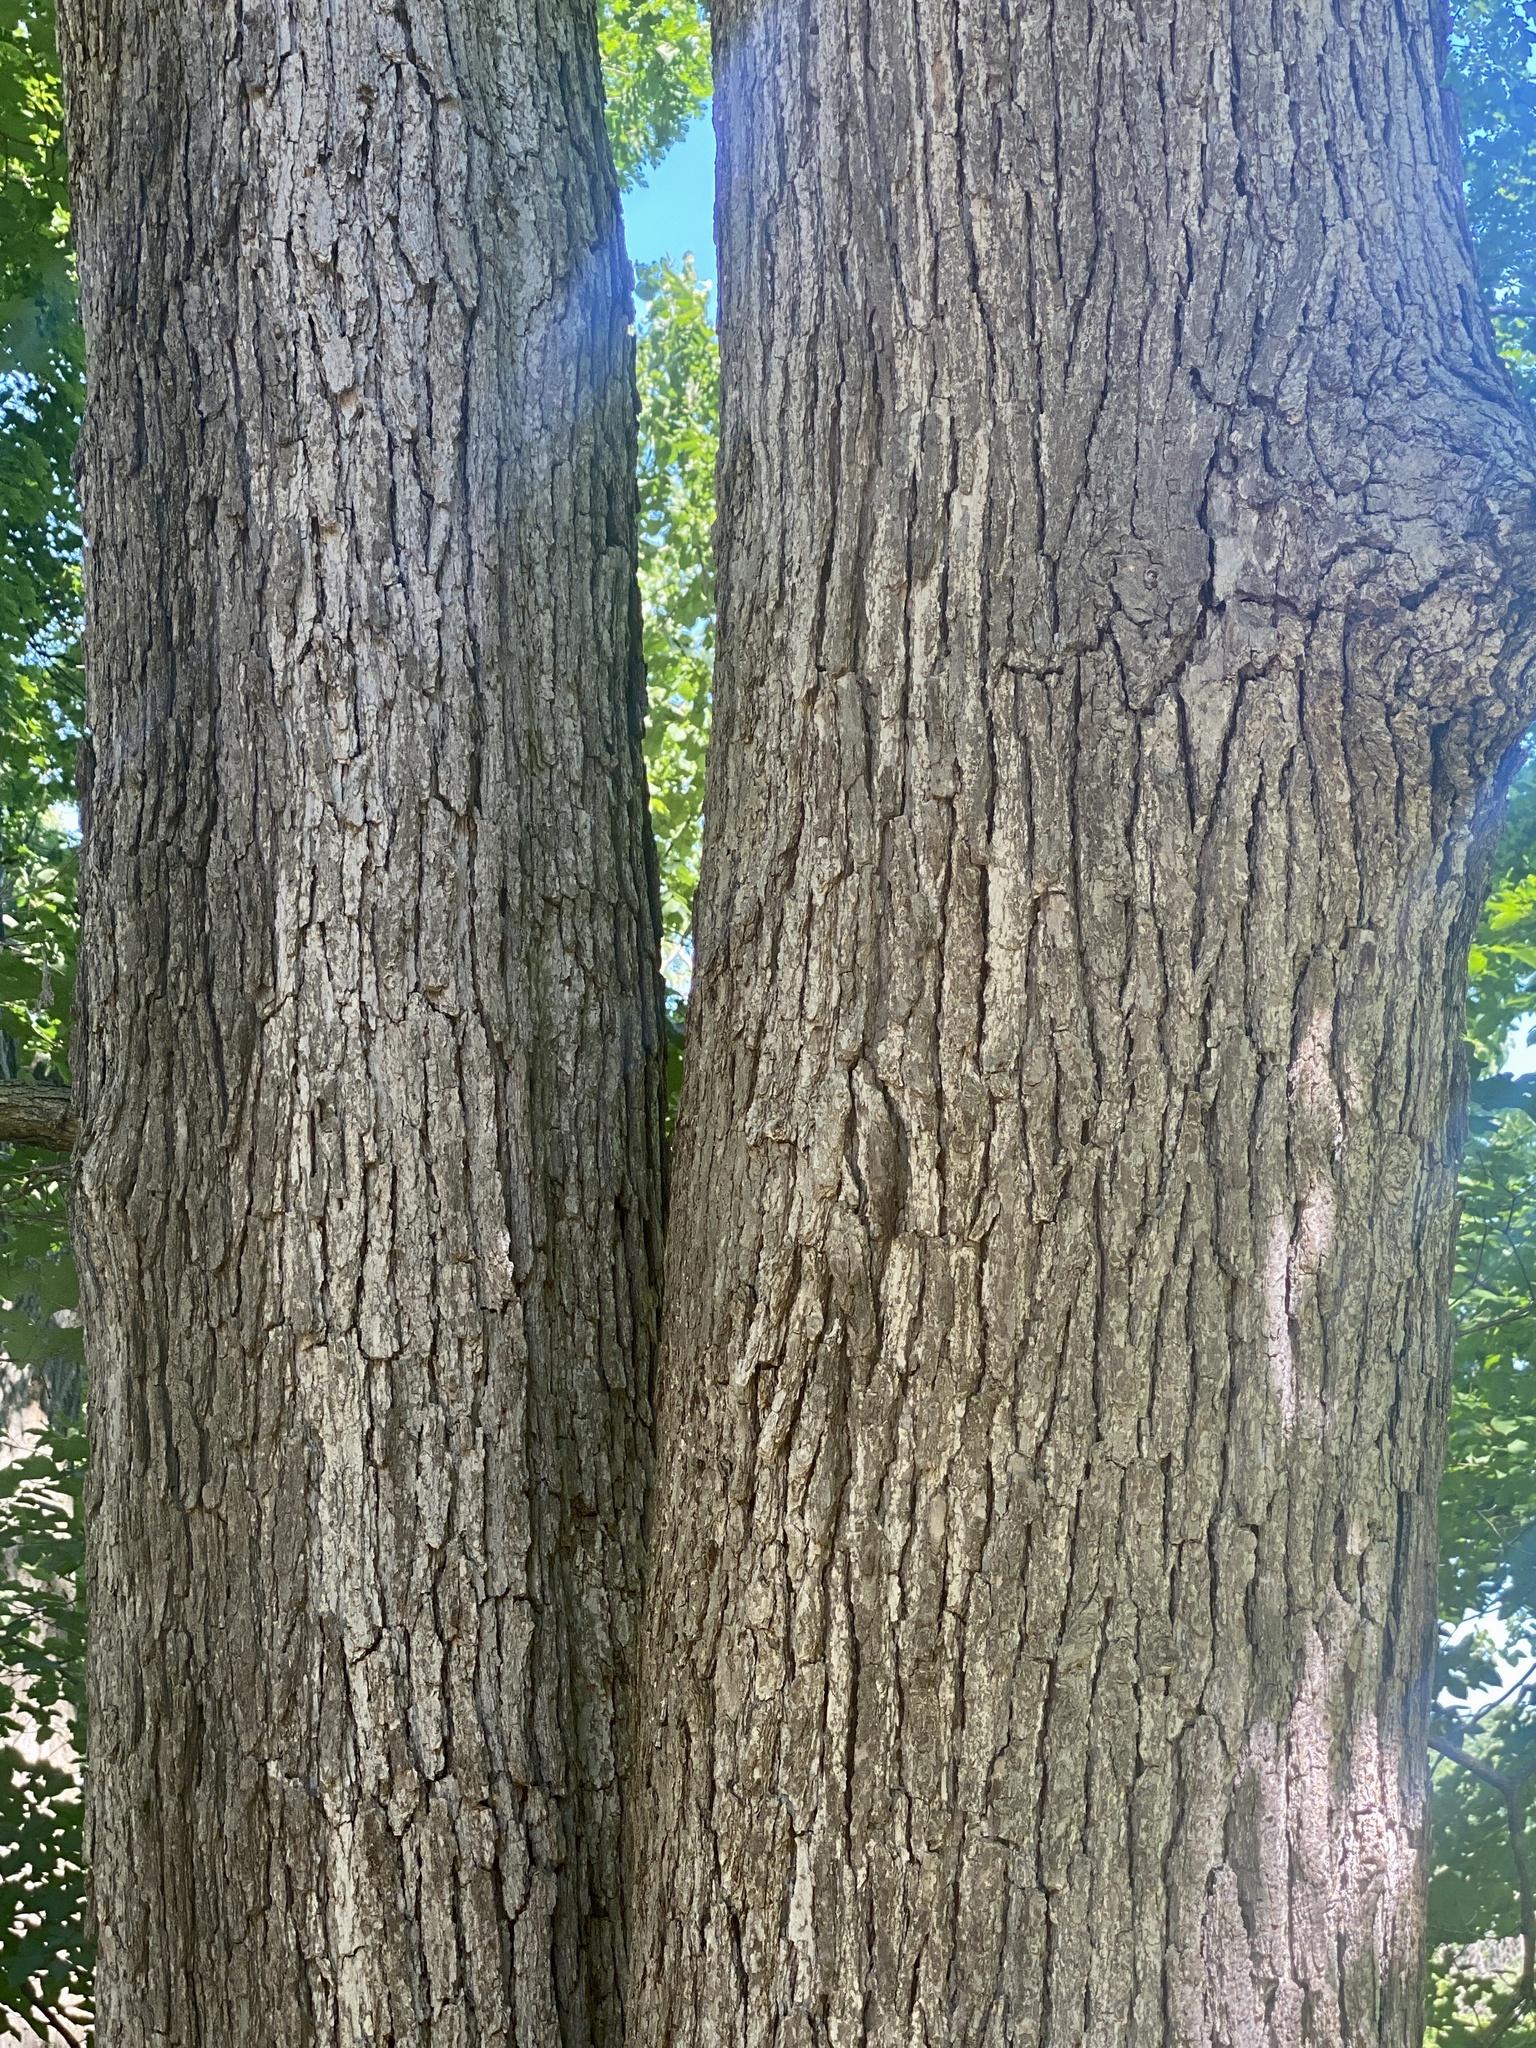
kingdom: Plantae
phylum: Tracheophyta
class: Magnoliopsida
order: Fagales
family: Fagaceae
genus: Quercus
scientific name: Quercus alba
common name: White oak
